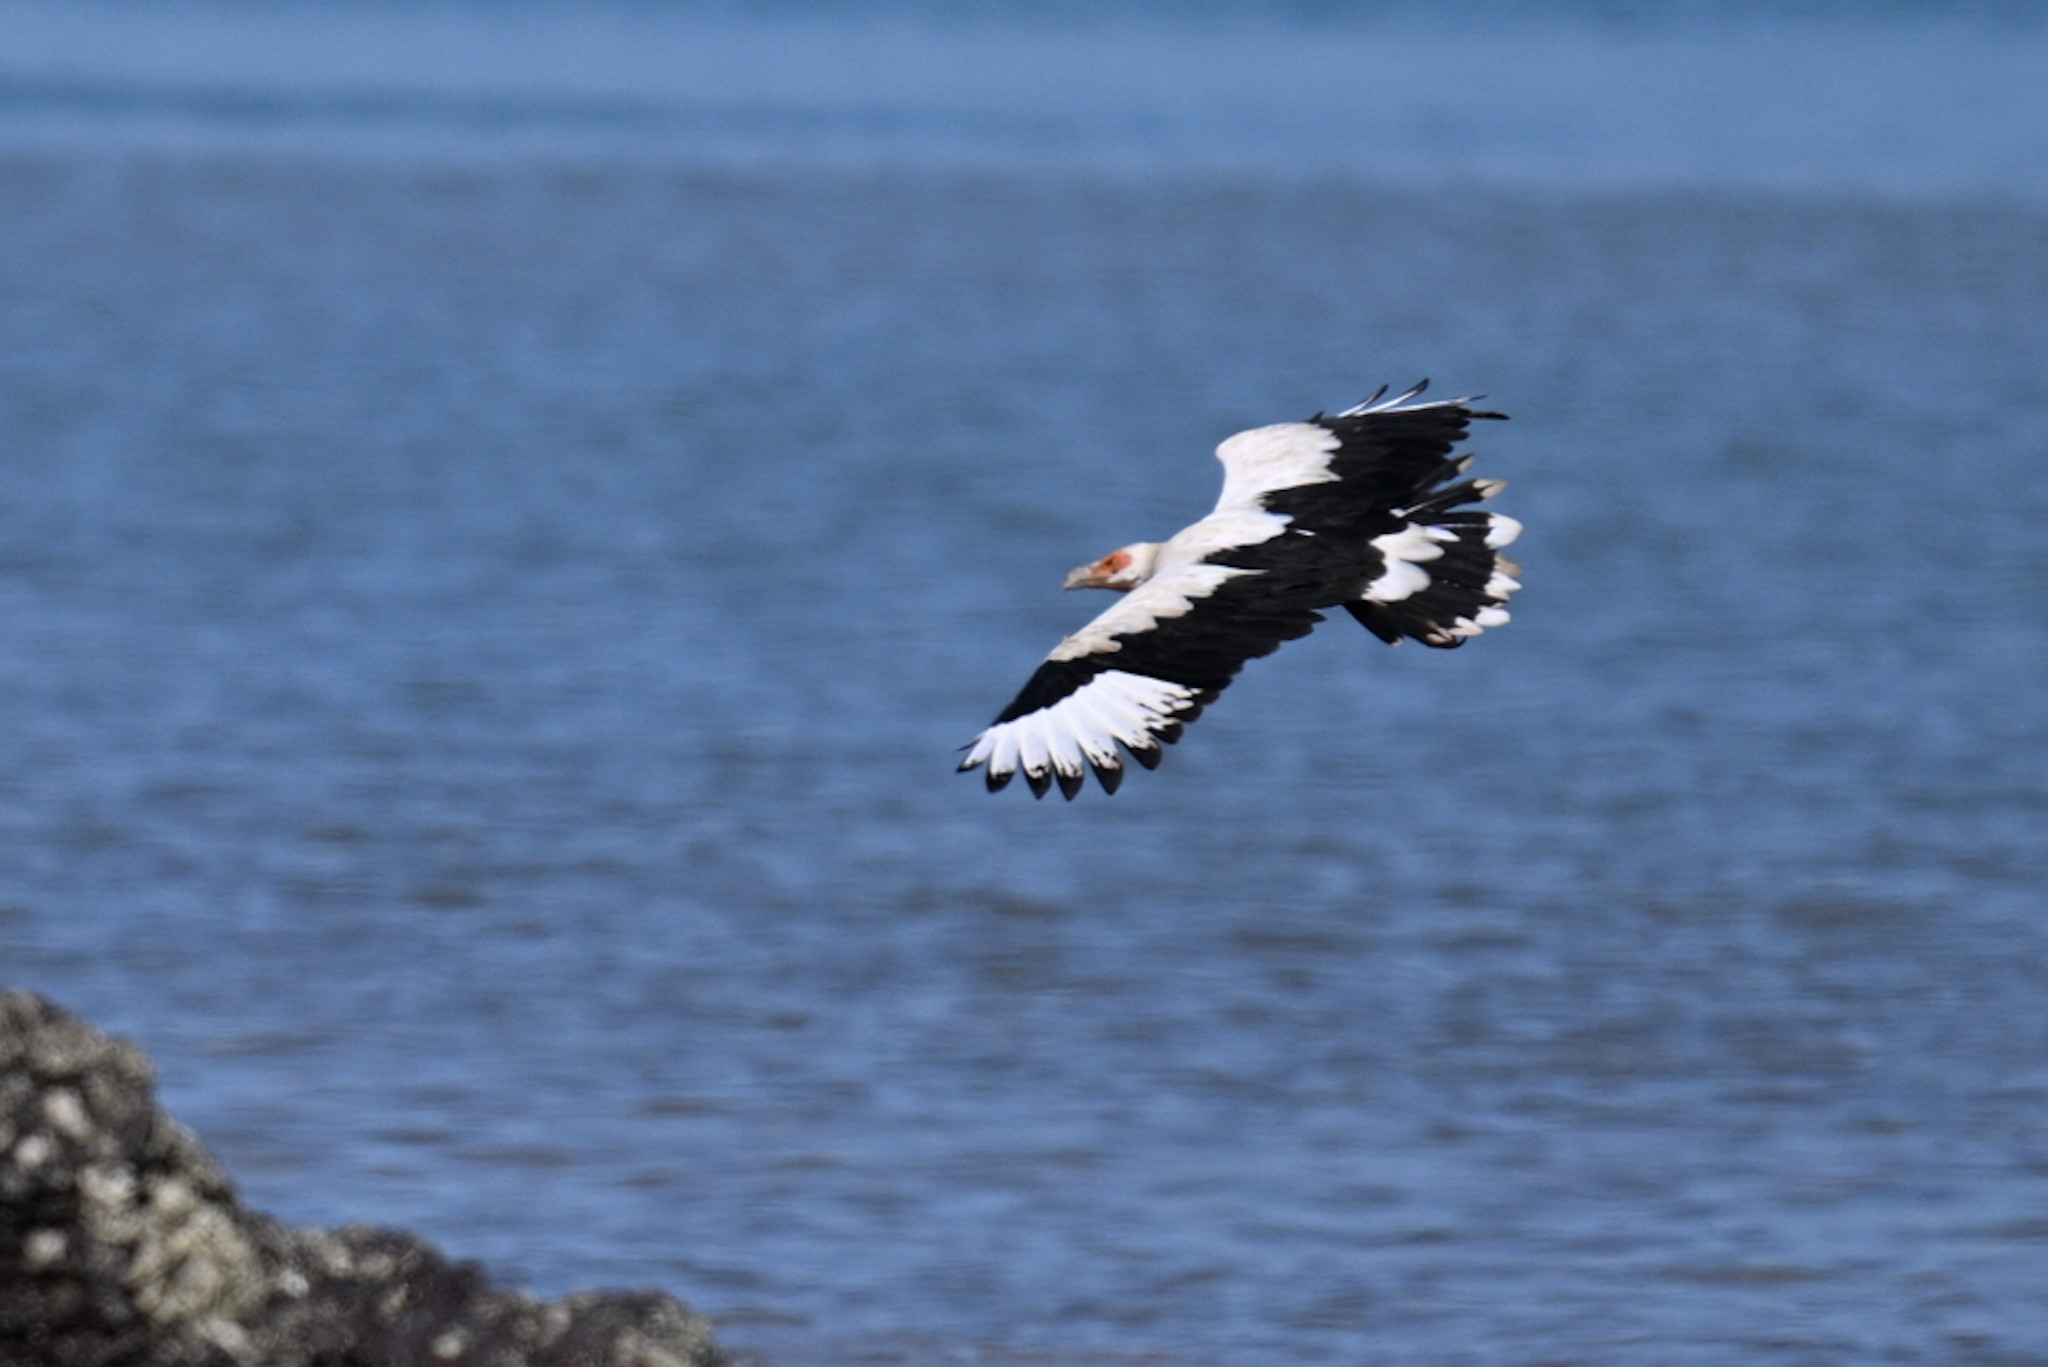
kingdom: Animalia
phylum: Chordata
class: Aves
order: Accipitriformes
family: Accipitridae
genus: Gypohierax
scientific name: Gypohierax angolensis
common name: Palm-nut vulture
